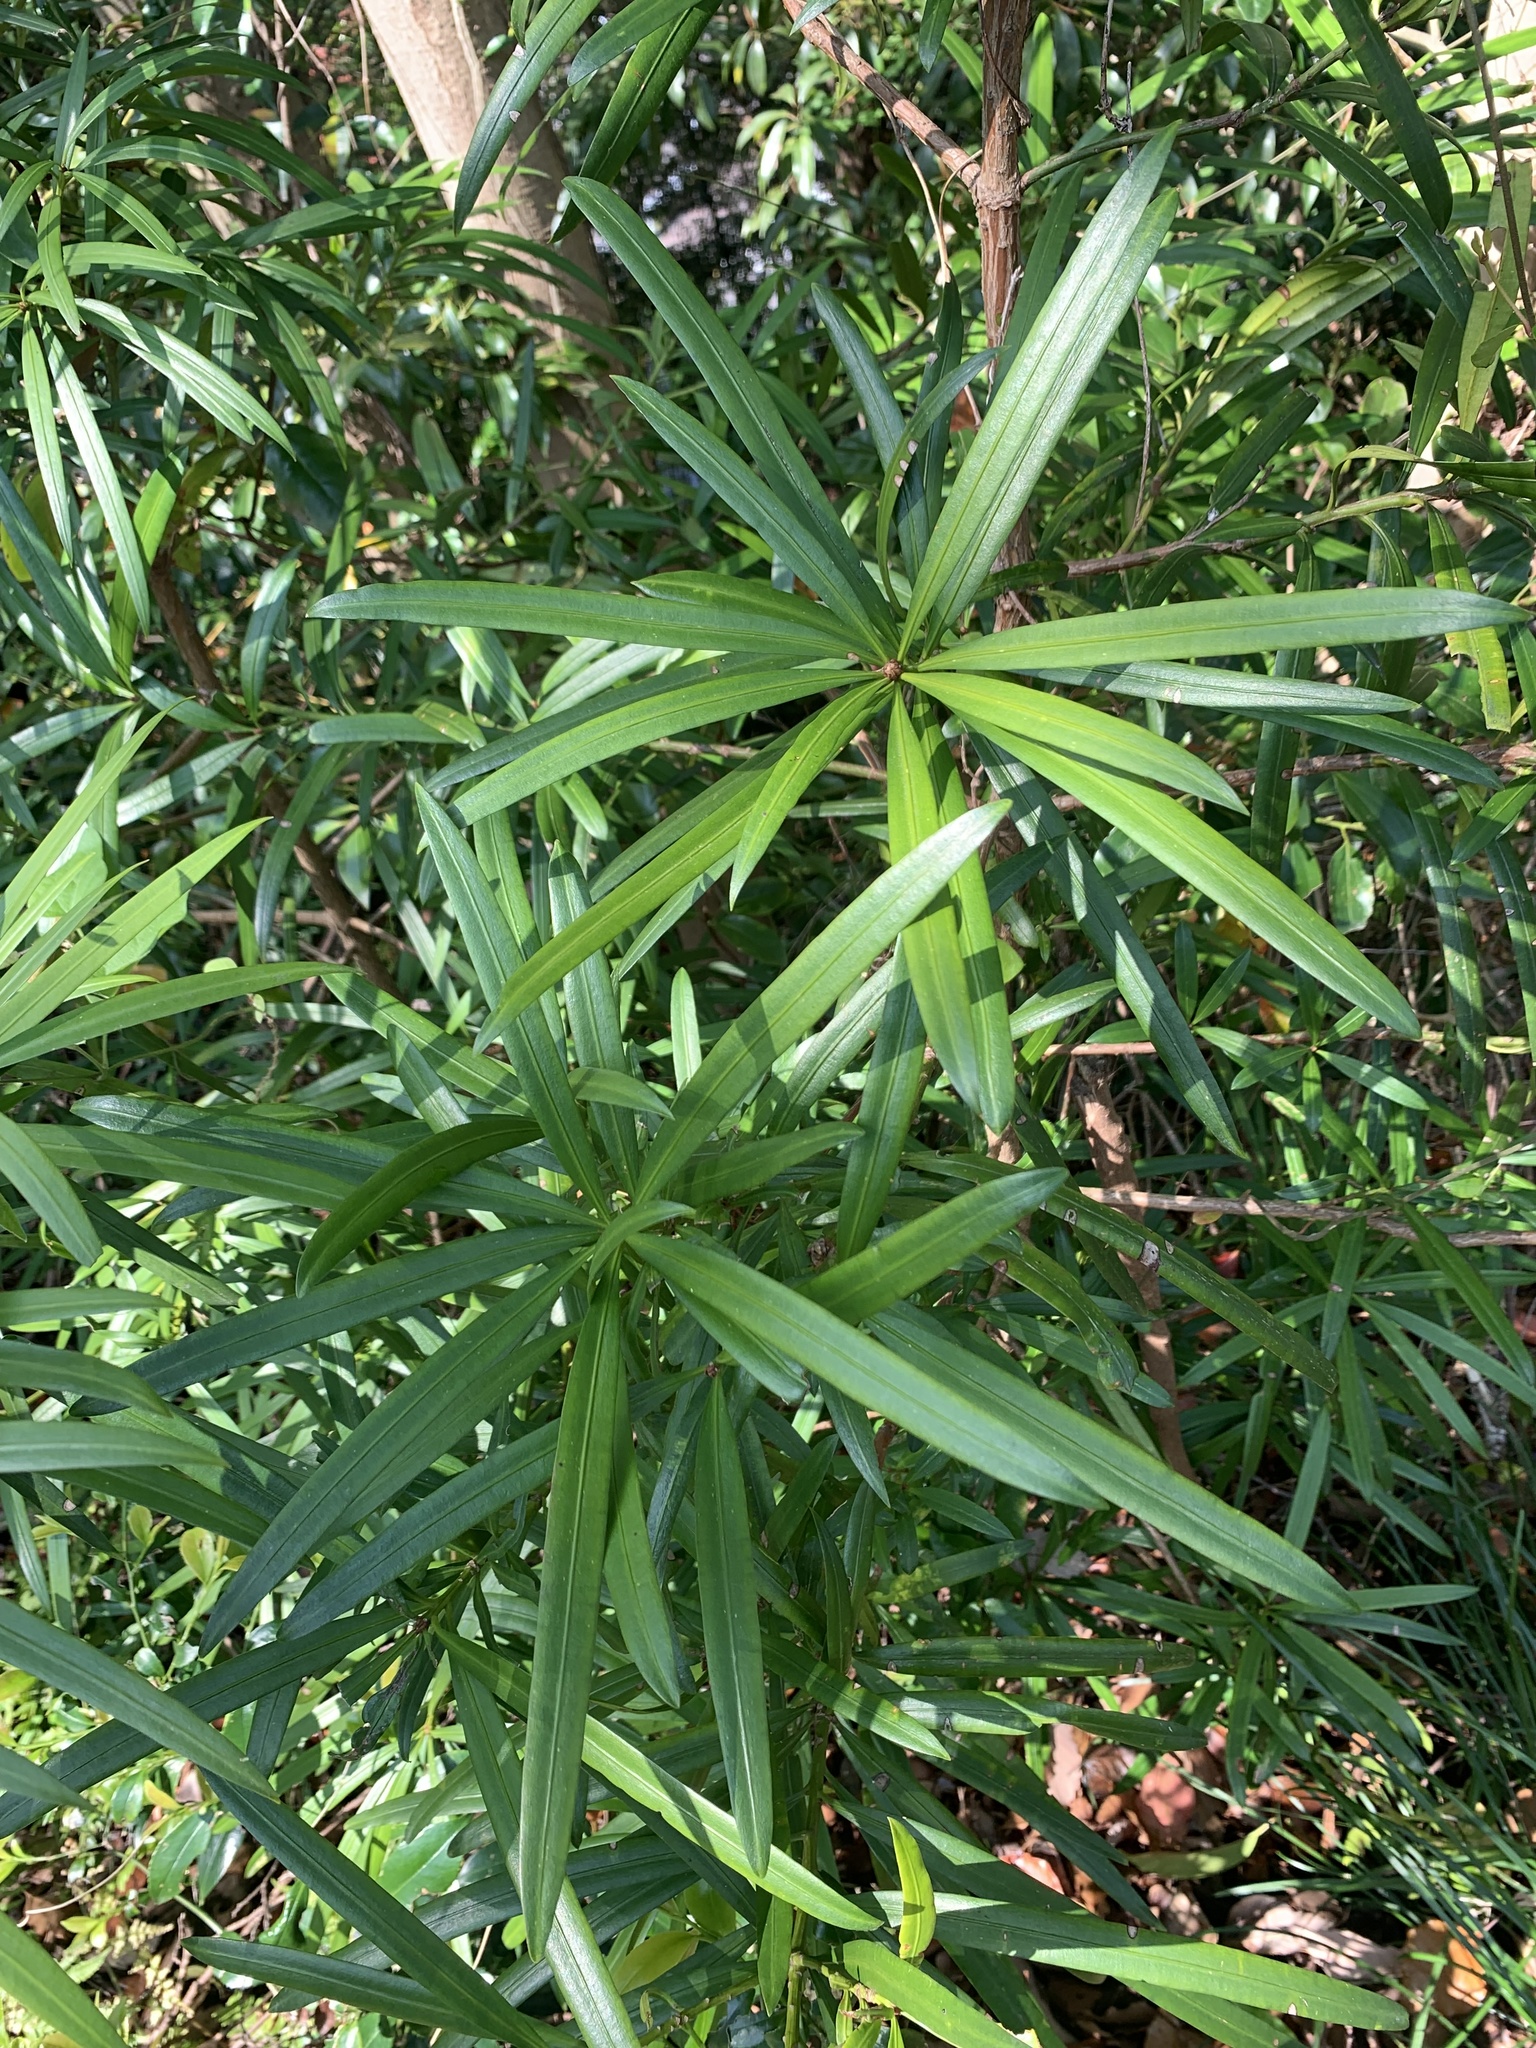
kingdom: Plantae
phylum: Tracheophyta
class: Pinopsida
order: Pinales
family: Podocarpaceae
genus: Podocarpus
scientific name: Podocarpus macrophyllus
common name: Japanese yew
